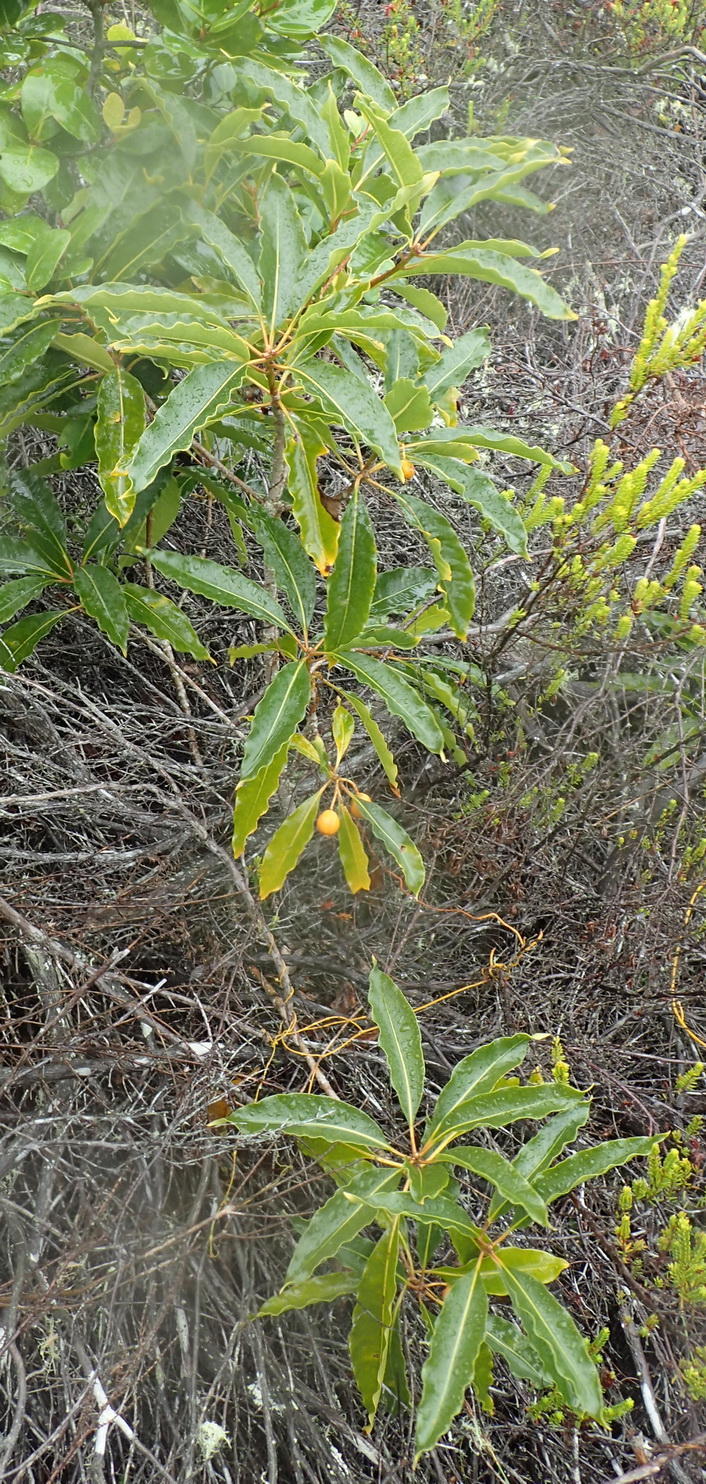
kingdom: Plantae
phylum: Tracheophyta
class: Magnoliopsida
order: Apiales
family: Pittosporaceae
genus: Pittosporum
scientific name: Pittosporum undulatum
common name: Australian cheesewood
